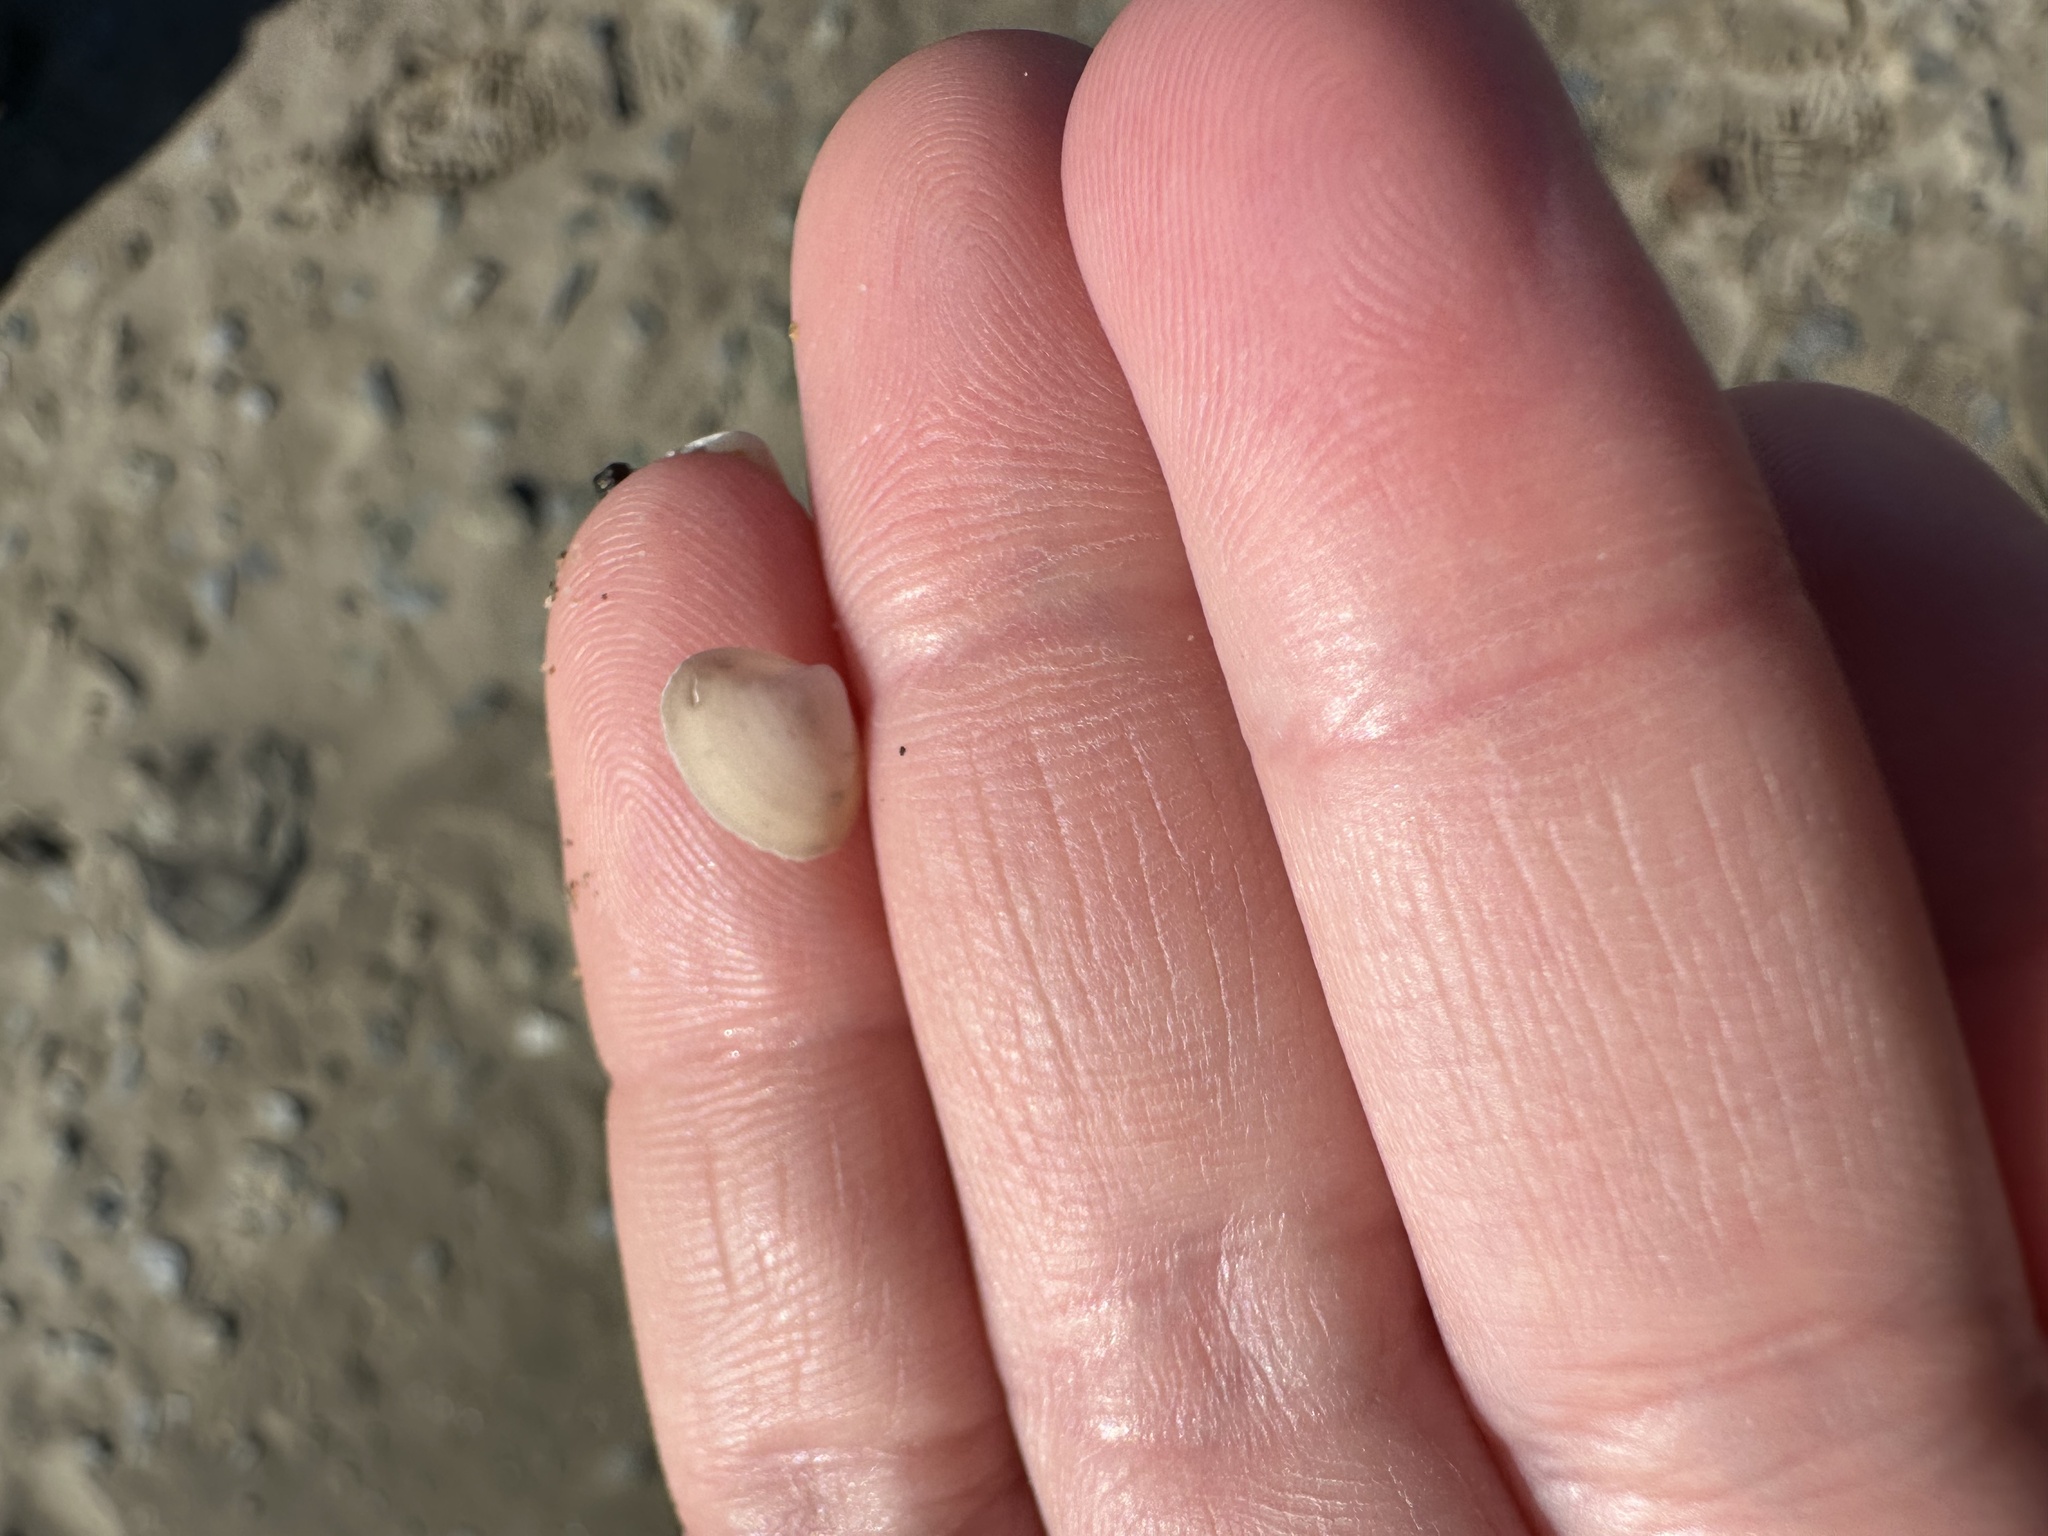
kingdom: Animalia
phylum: Mollusca
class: Bivalvia
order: Venerida
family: Mactridae
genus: Spisula
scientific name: Spisula solidissima
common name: Atlantic surf clam
